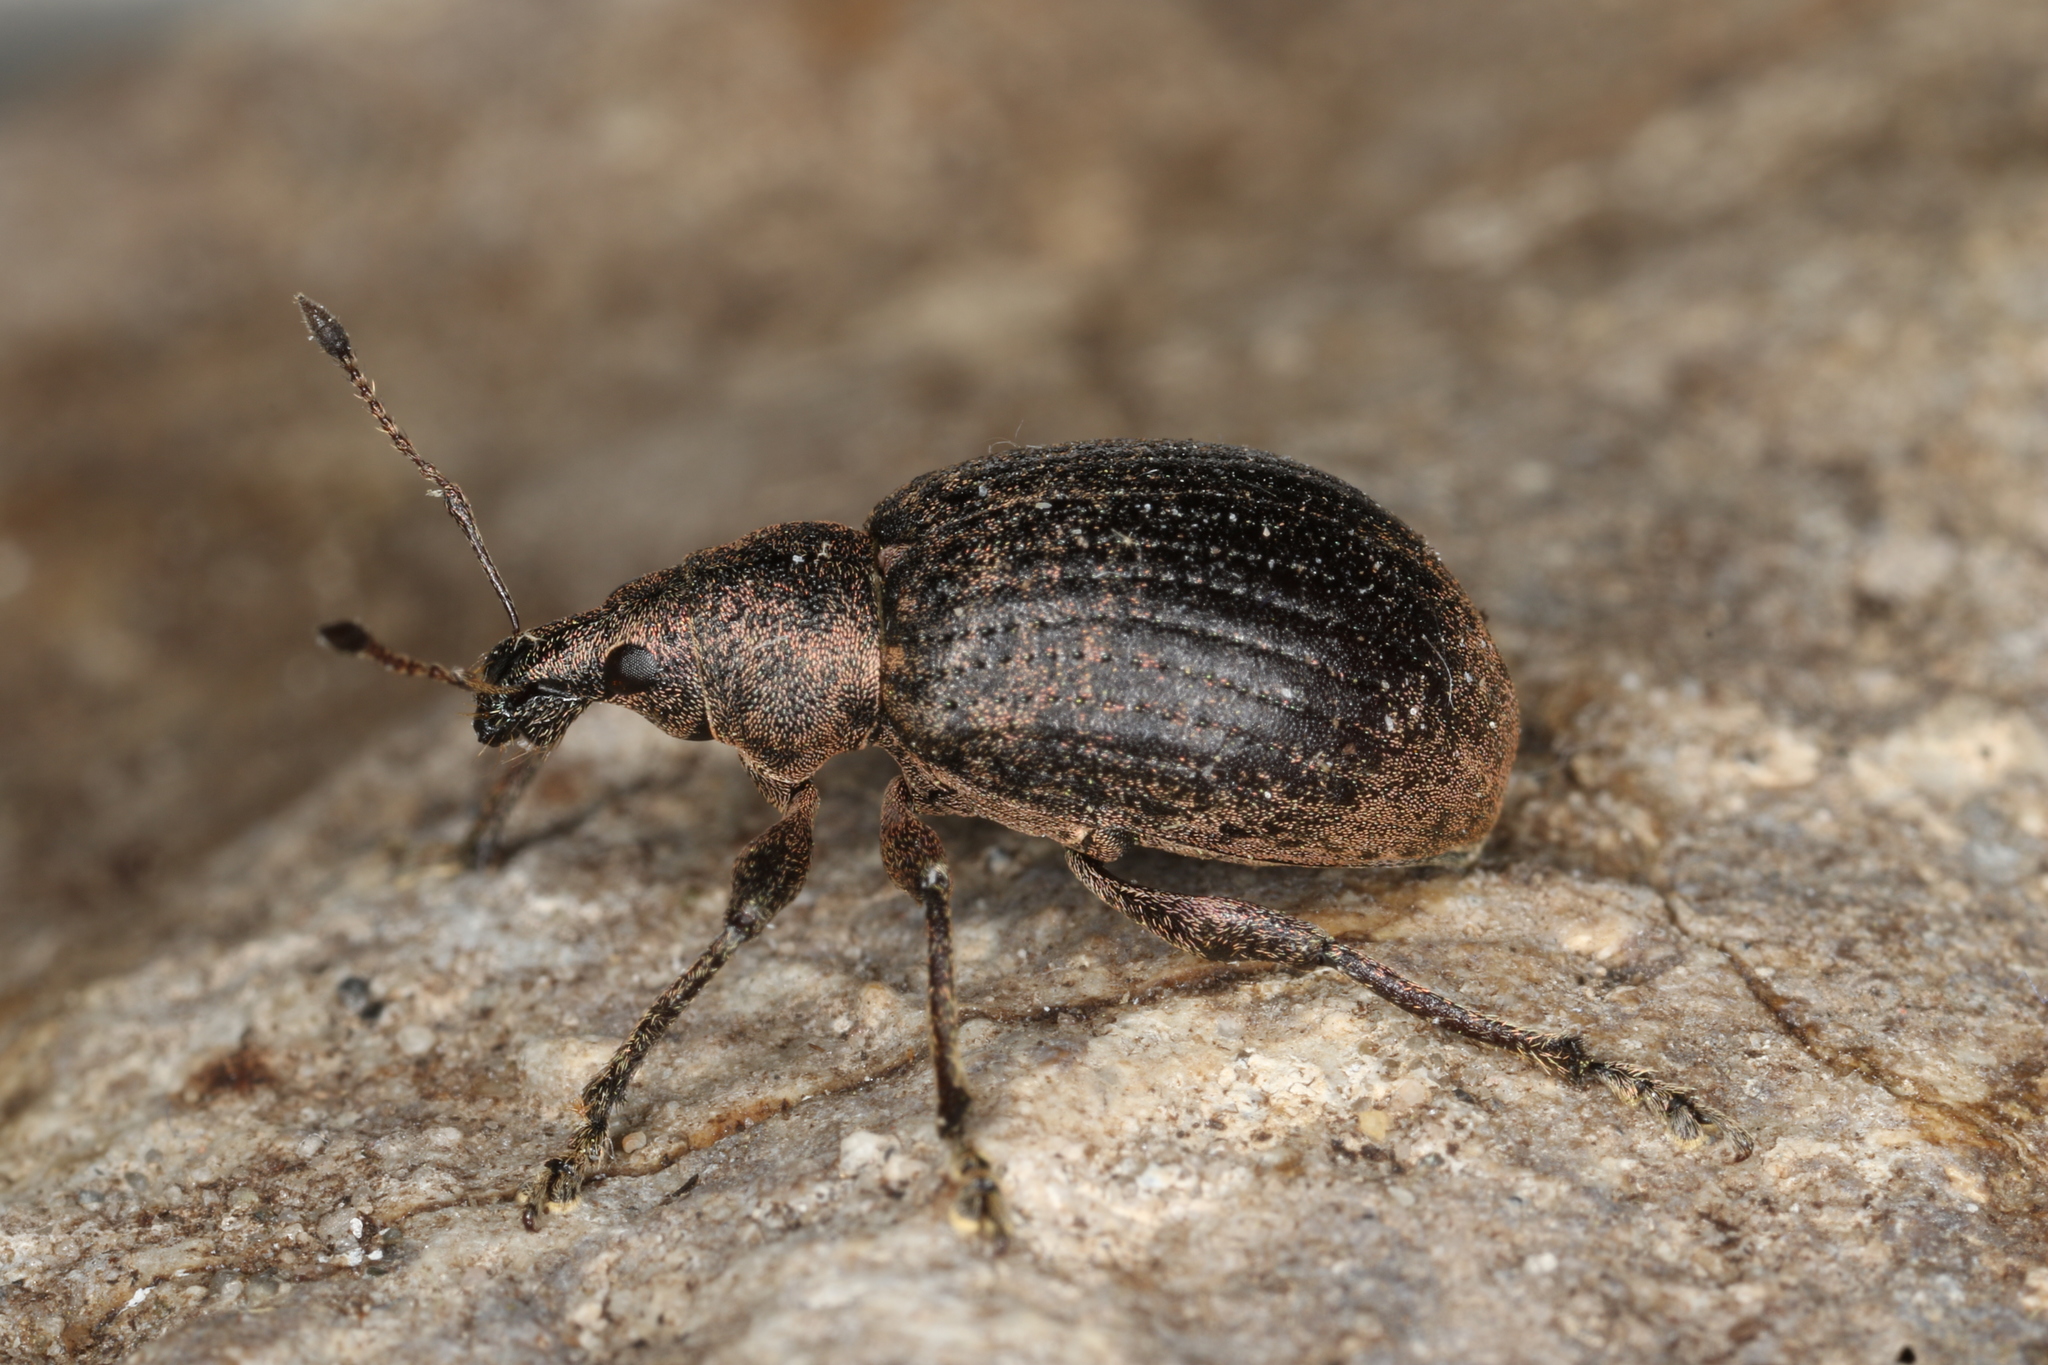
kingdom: Animalia
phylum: Arthropoda
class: Insecta
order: Coleoptera
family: Curculionidae
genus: Liophloeus
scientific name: Liophloeus tessulatus
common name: Weevil
